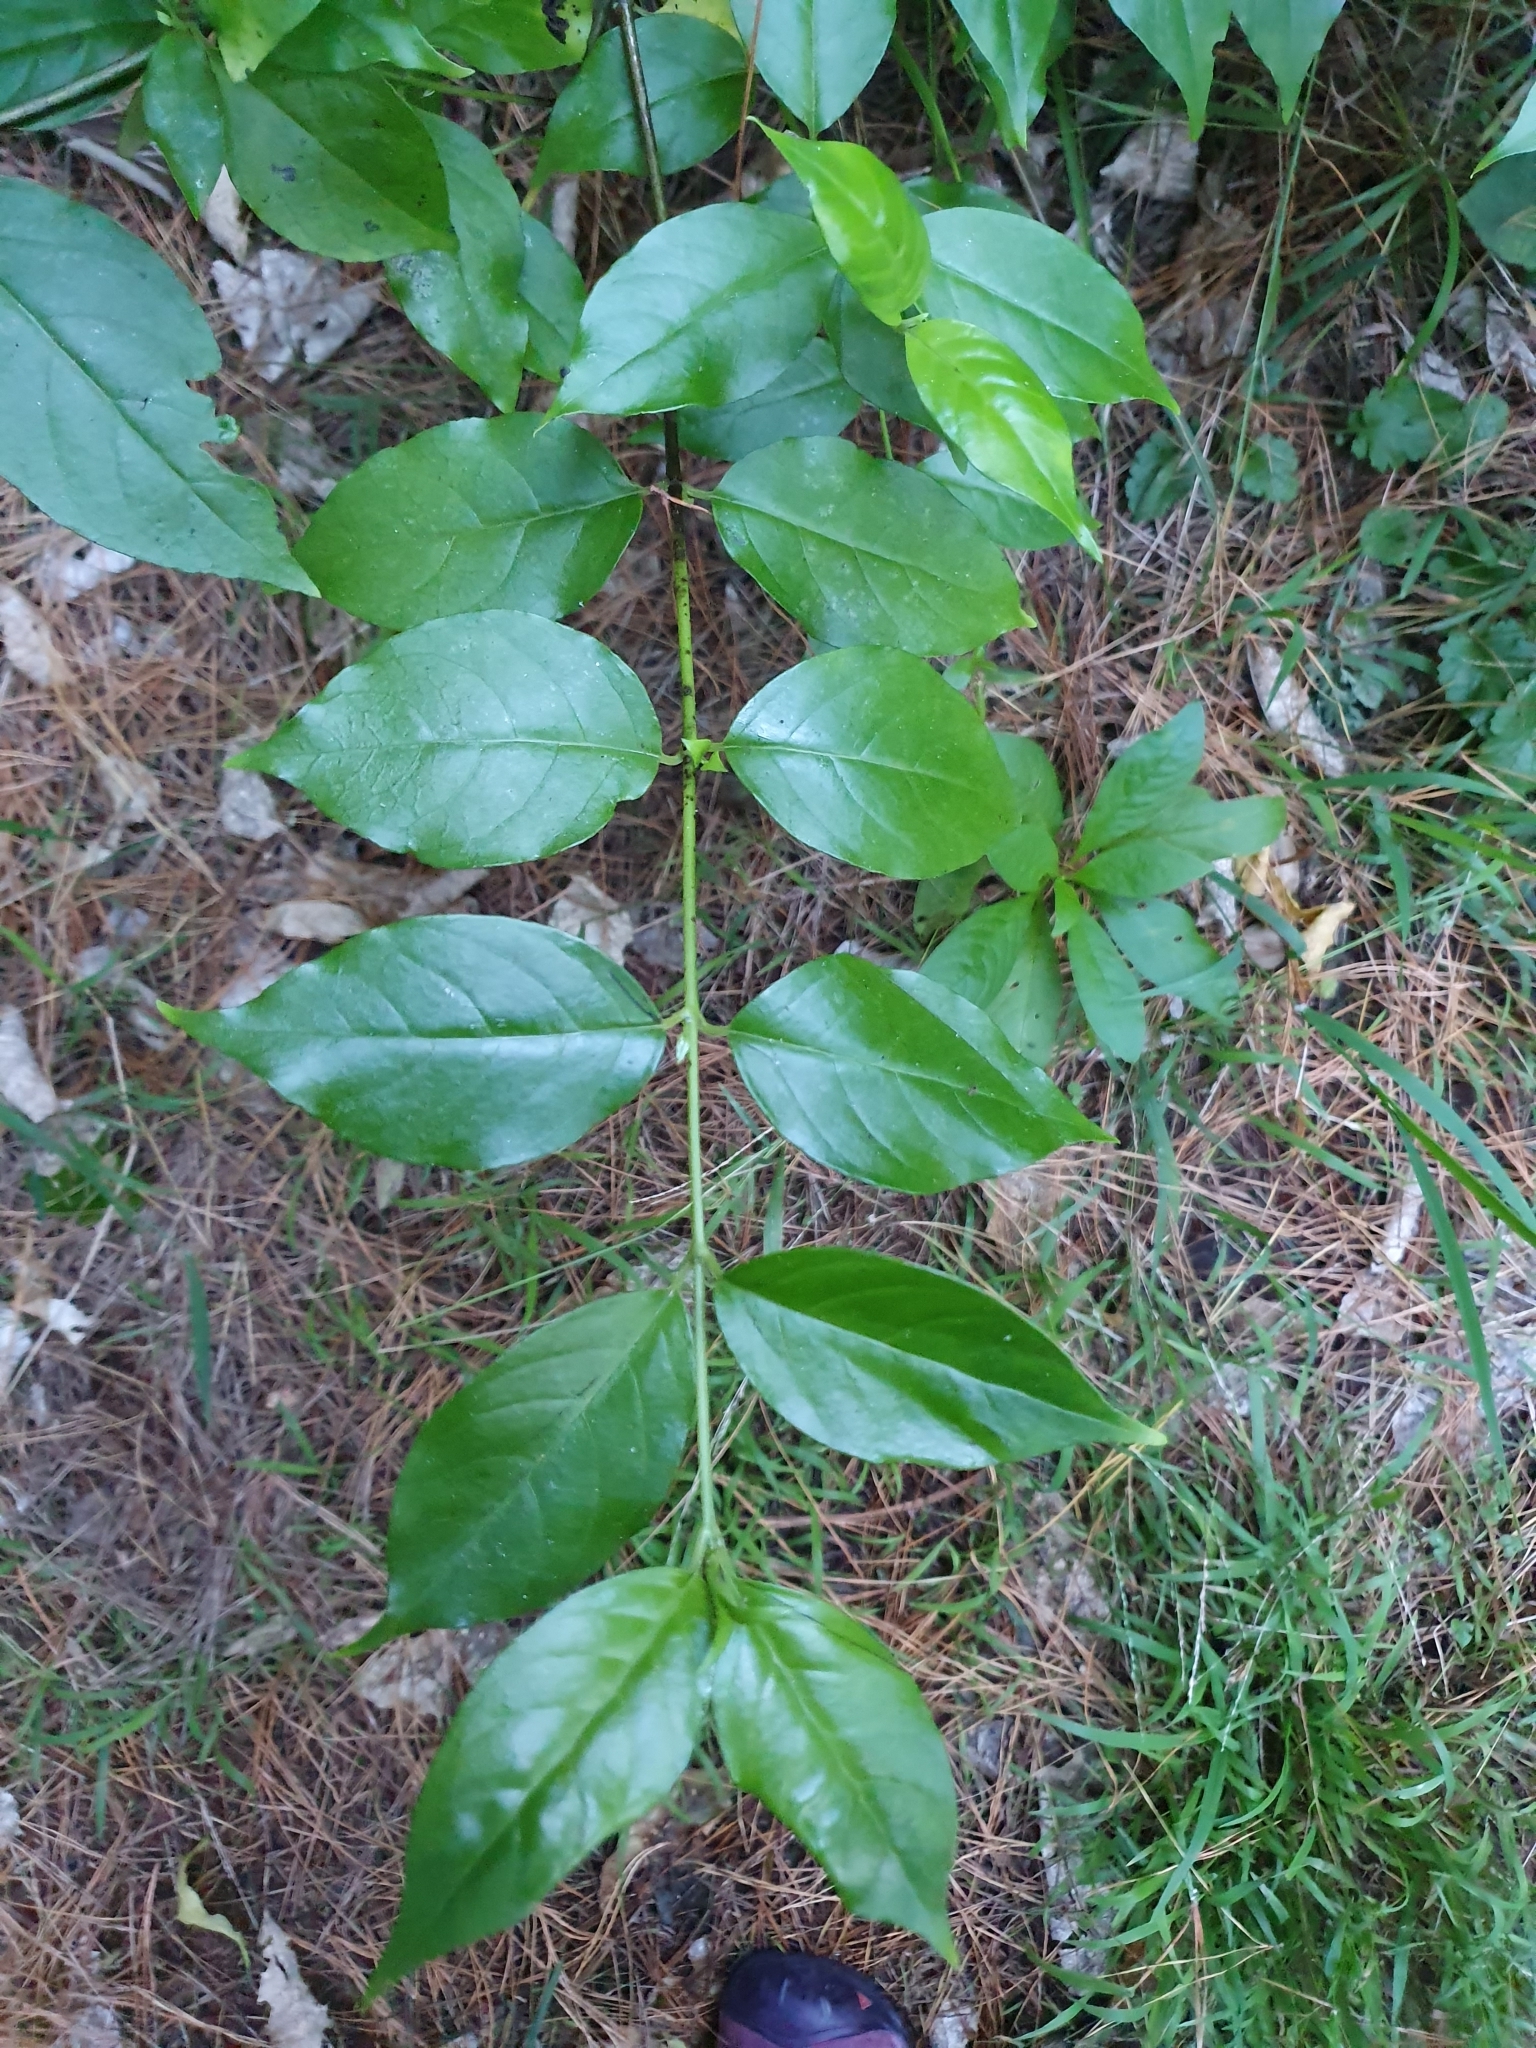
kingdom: Plantae
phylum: Tracheophyta
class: Magnoliopsida
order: Gentianales
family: Loganiaceae
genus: Geniostoma
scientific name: Geniostoma ligustrifolium
